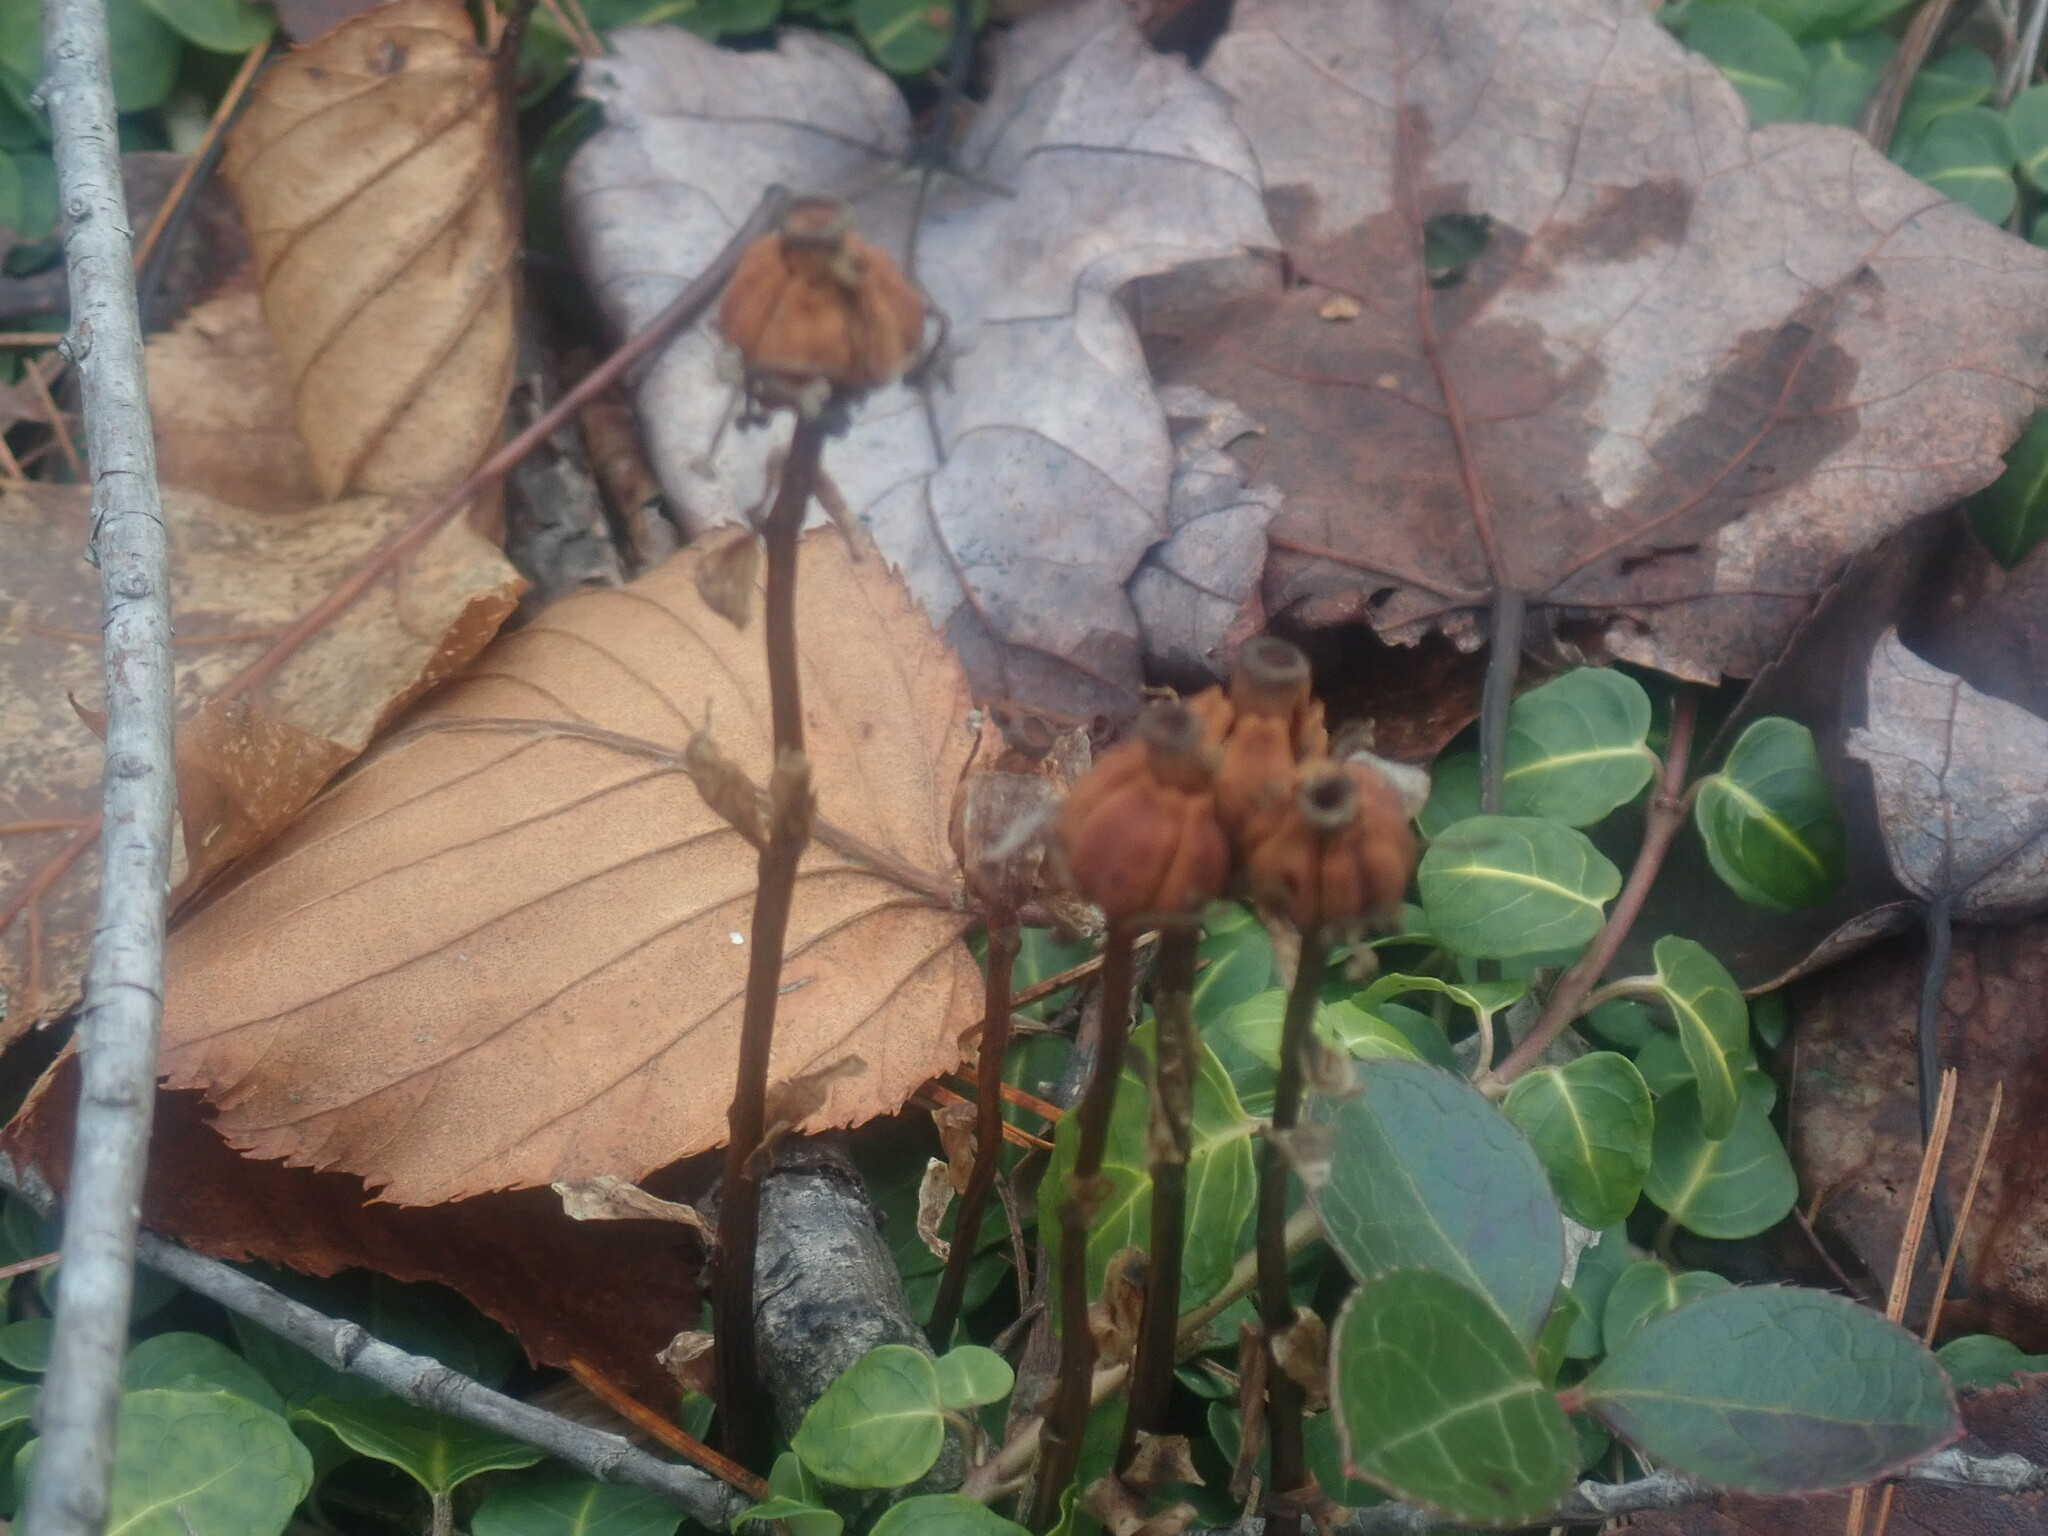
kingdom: Plantae
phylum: Tracheophyta
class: Magnoliopsida
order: Ericales
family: Ericaceae
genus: Monotropa
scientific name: Monotropa uniflora
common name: Convulsion root
